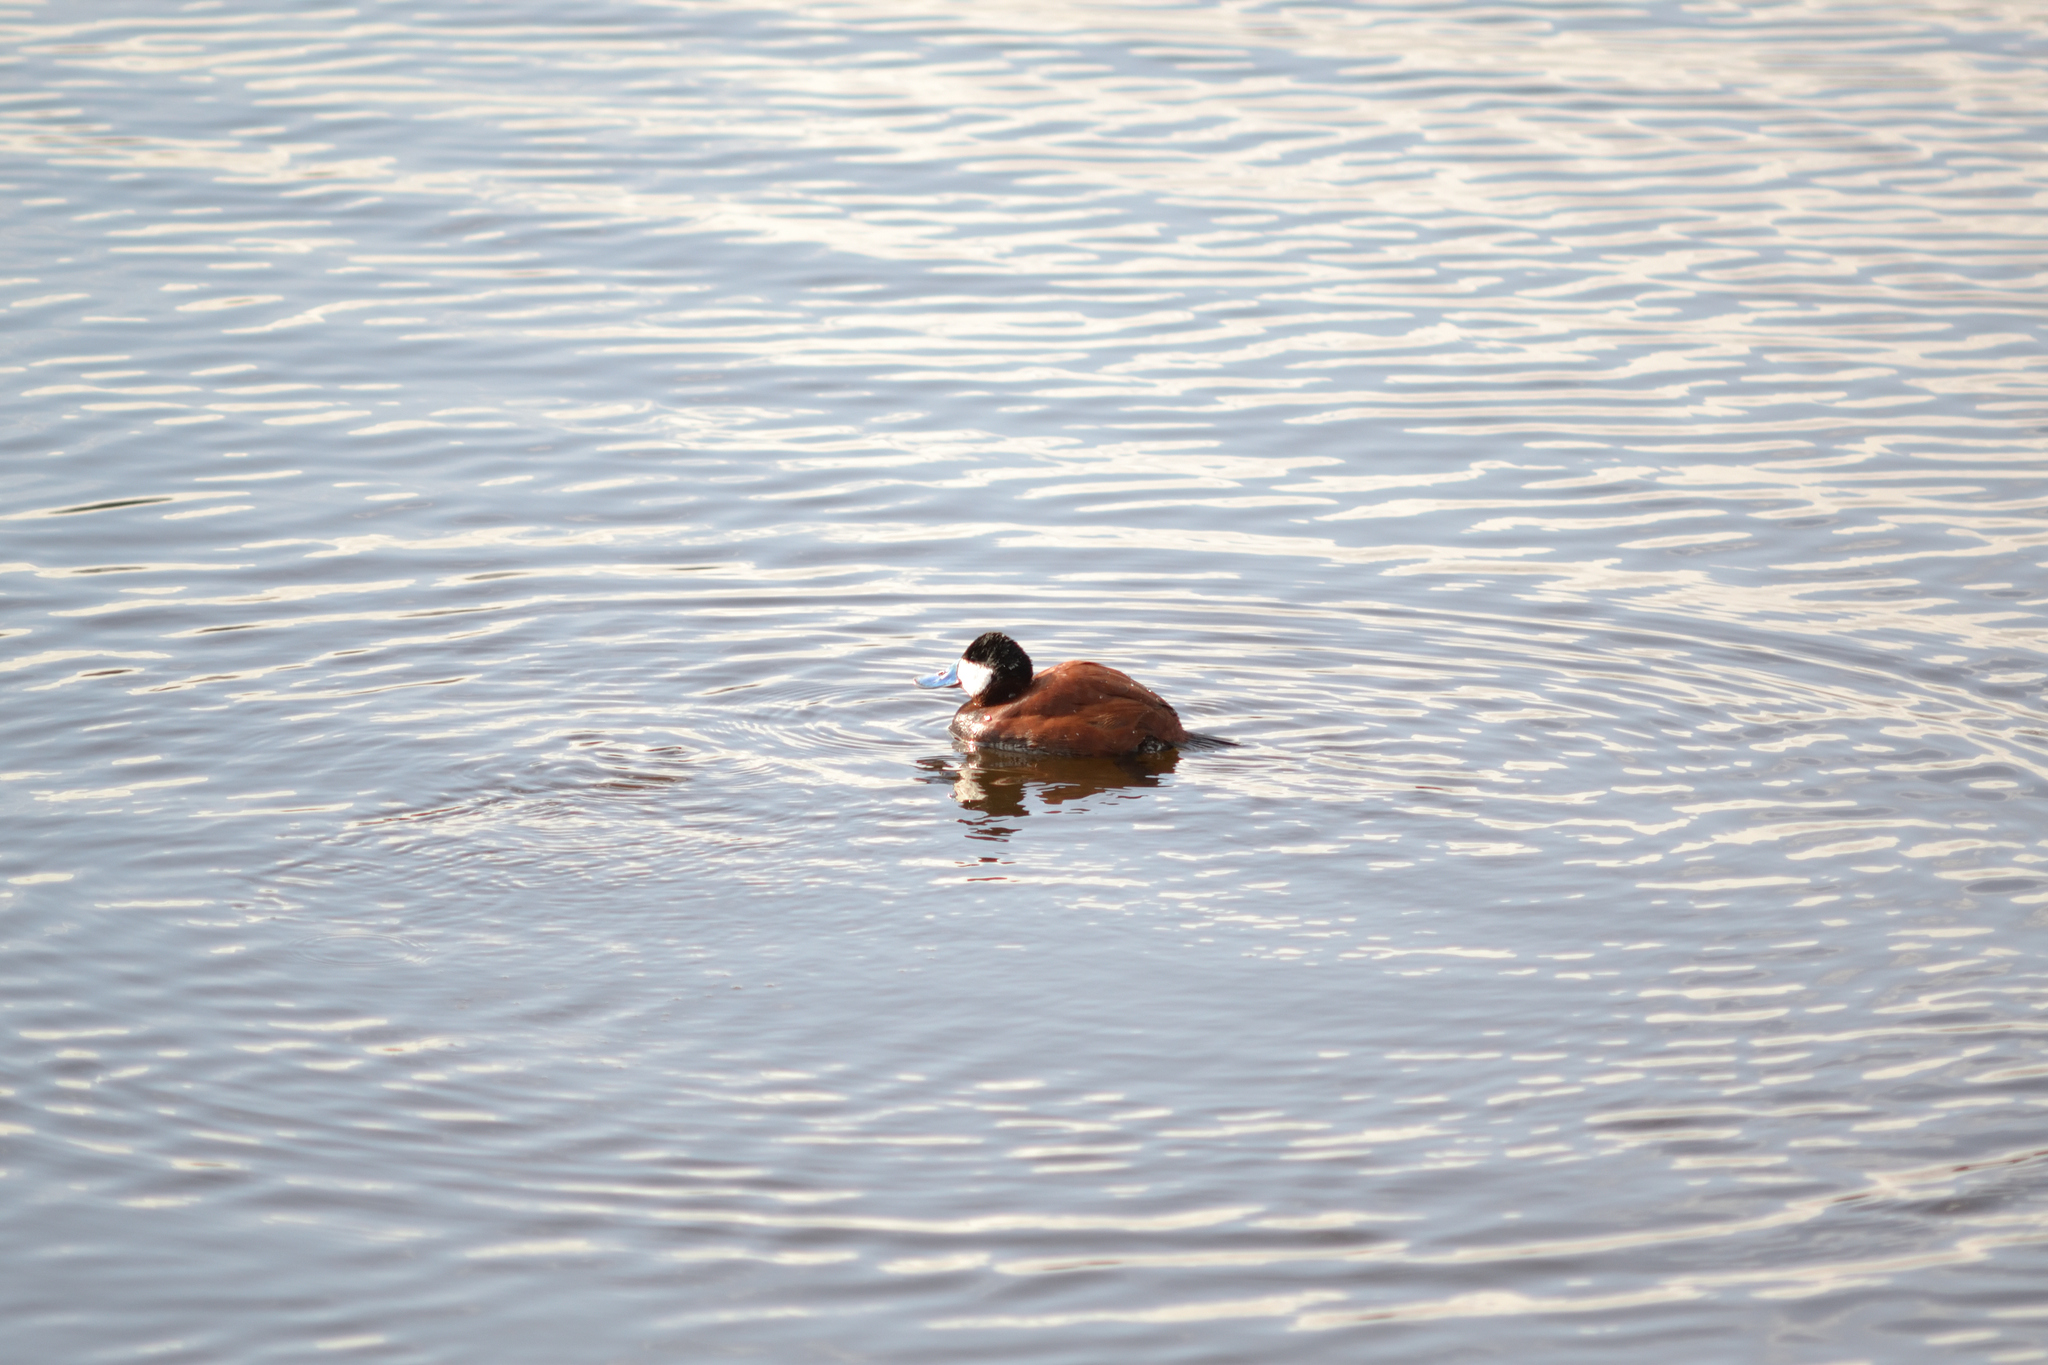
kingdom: Animalia
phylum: Chordata
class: Aves
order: Anseriformes
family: Anatidae
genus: Oxyura
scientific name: Oxyura jamaicensis
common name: Ruddy duck
